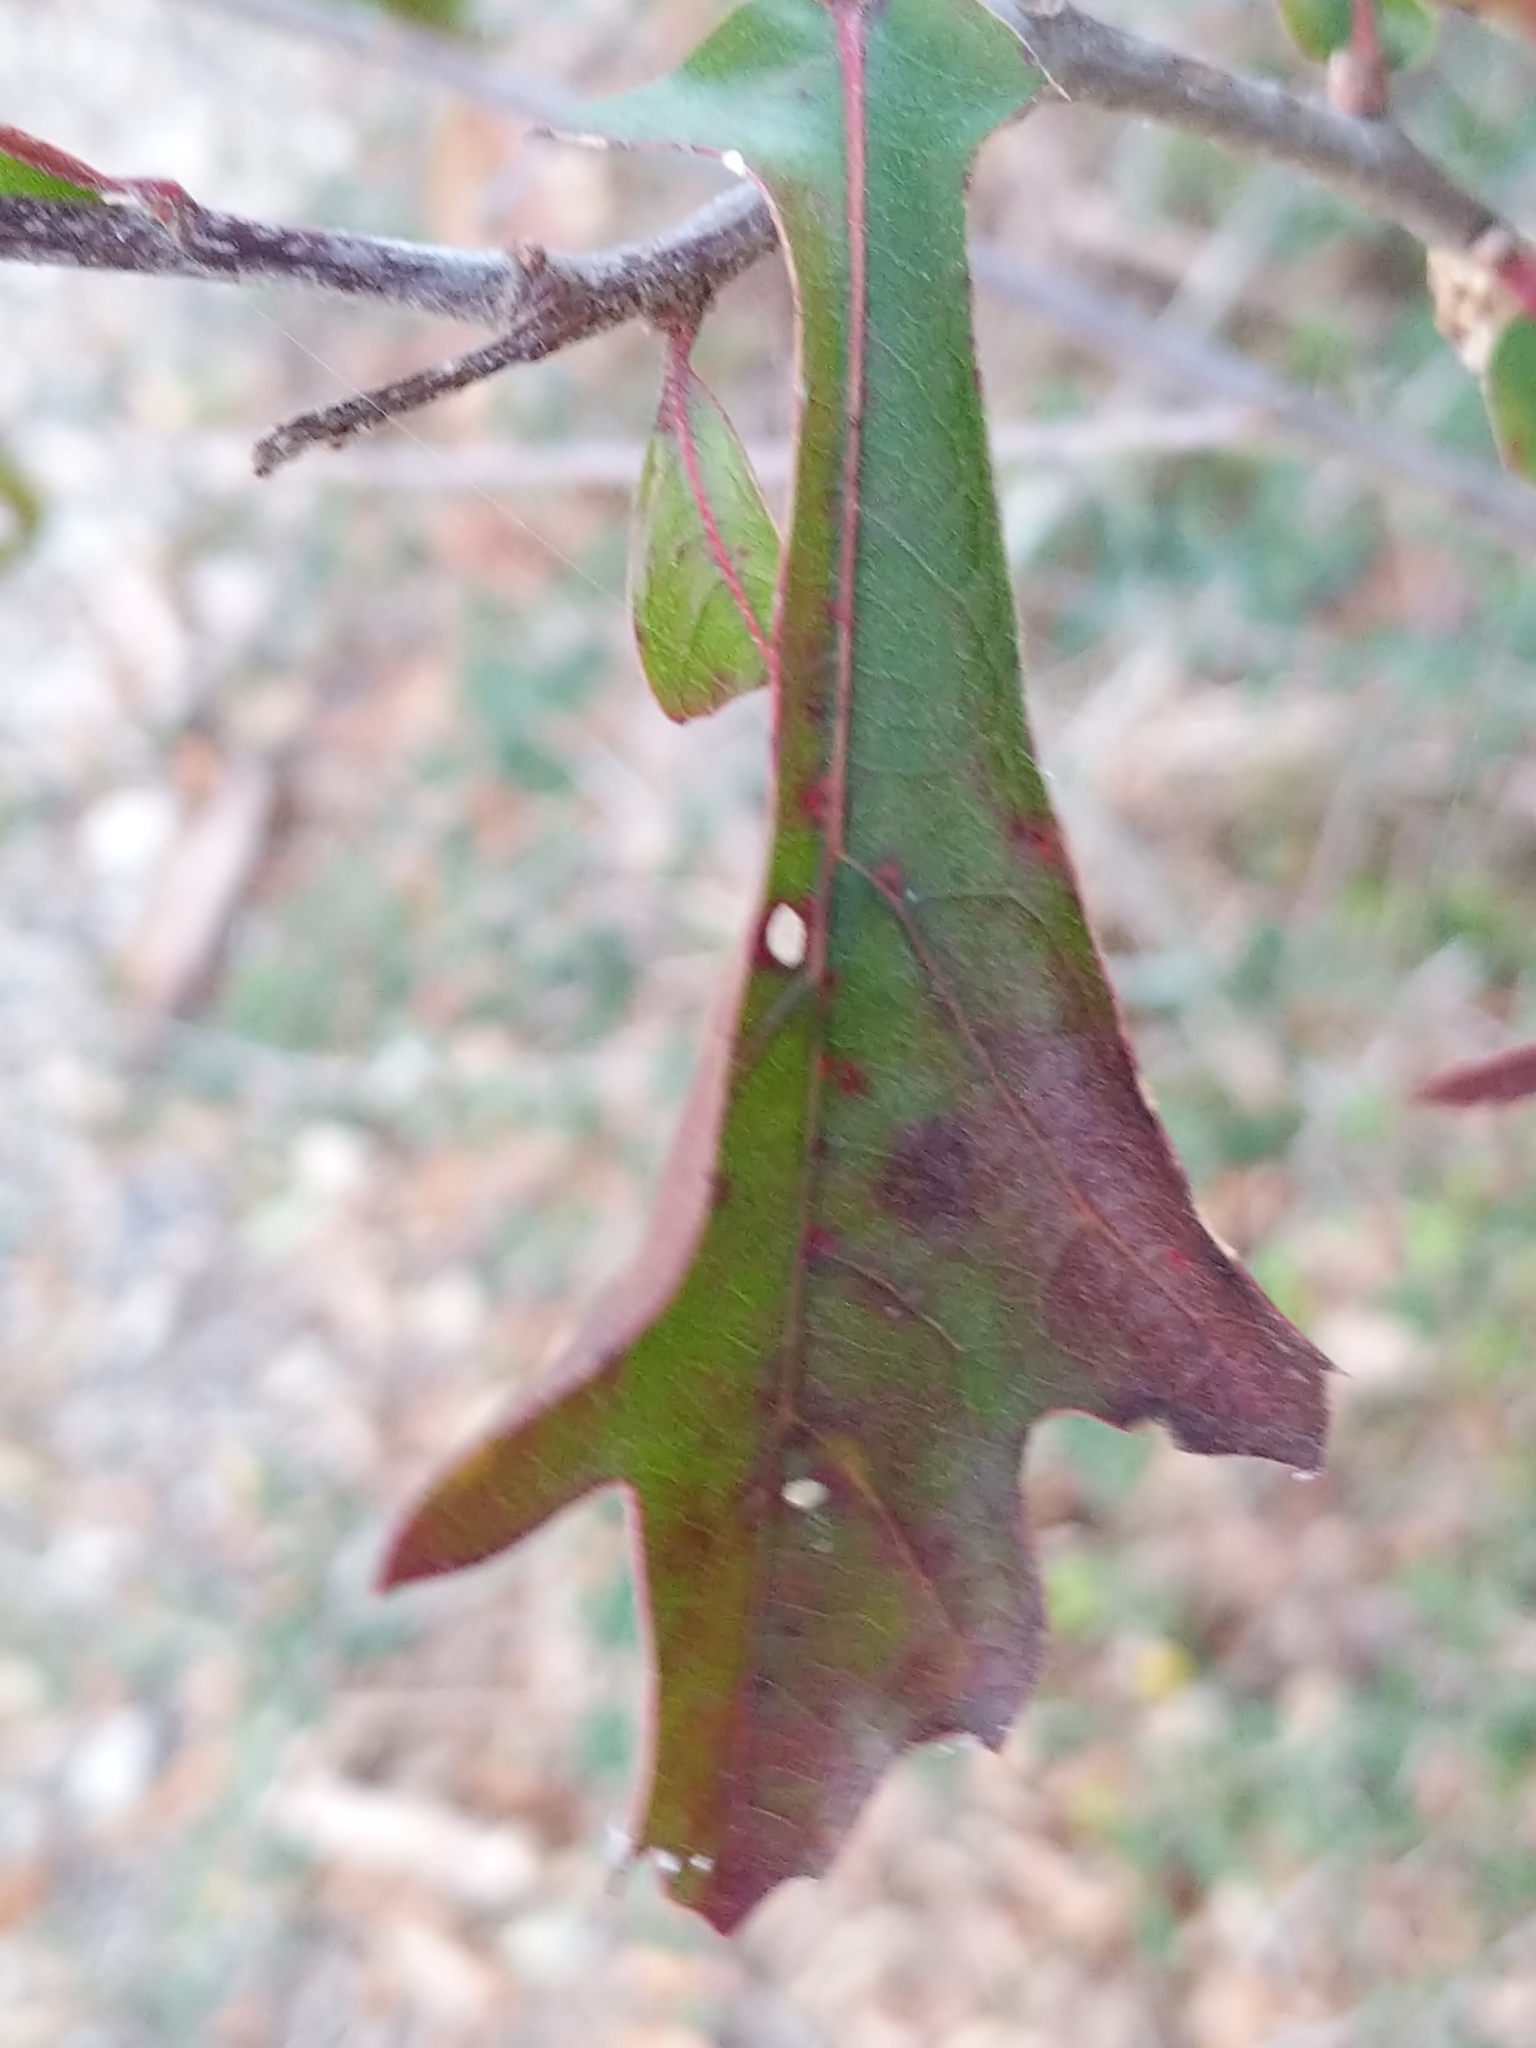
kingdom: Plantae
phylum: Tracheophyta
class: Magnoliopsida
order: Fagales
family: Fagaceae
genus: Quercus
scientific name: Quercus nigra
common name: Water oak
